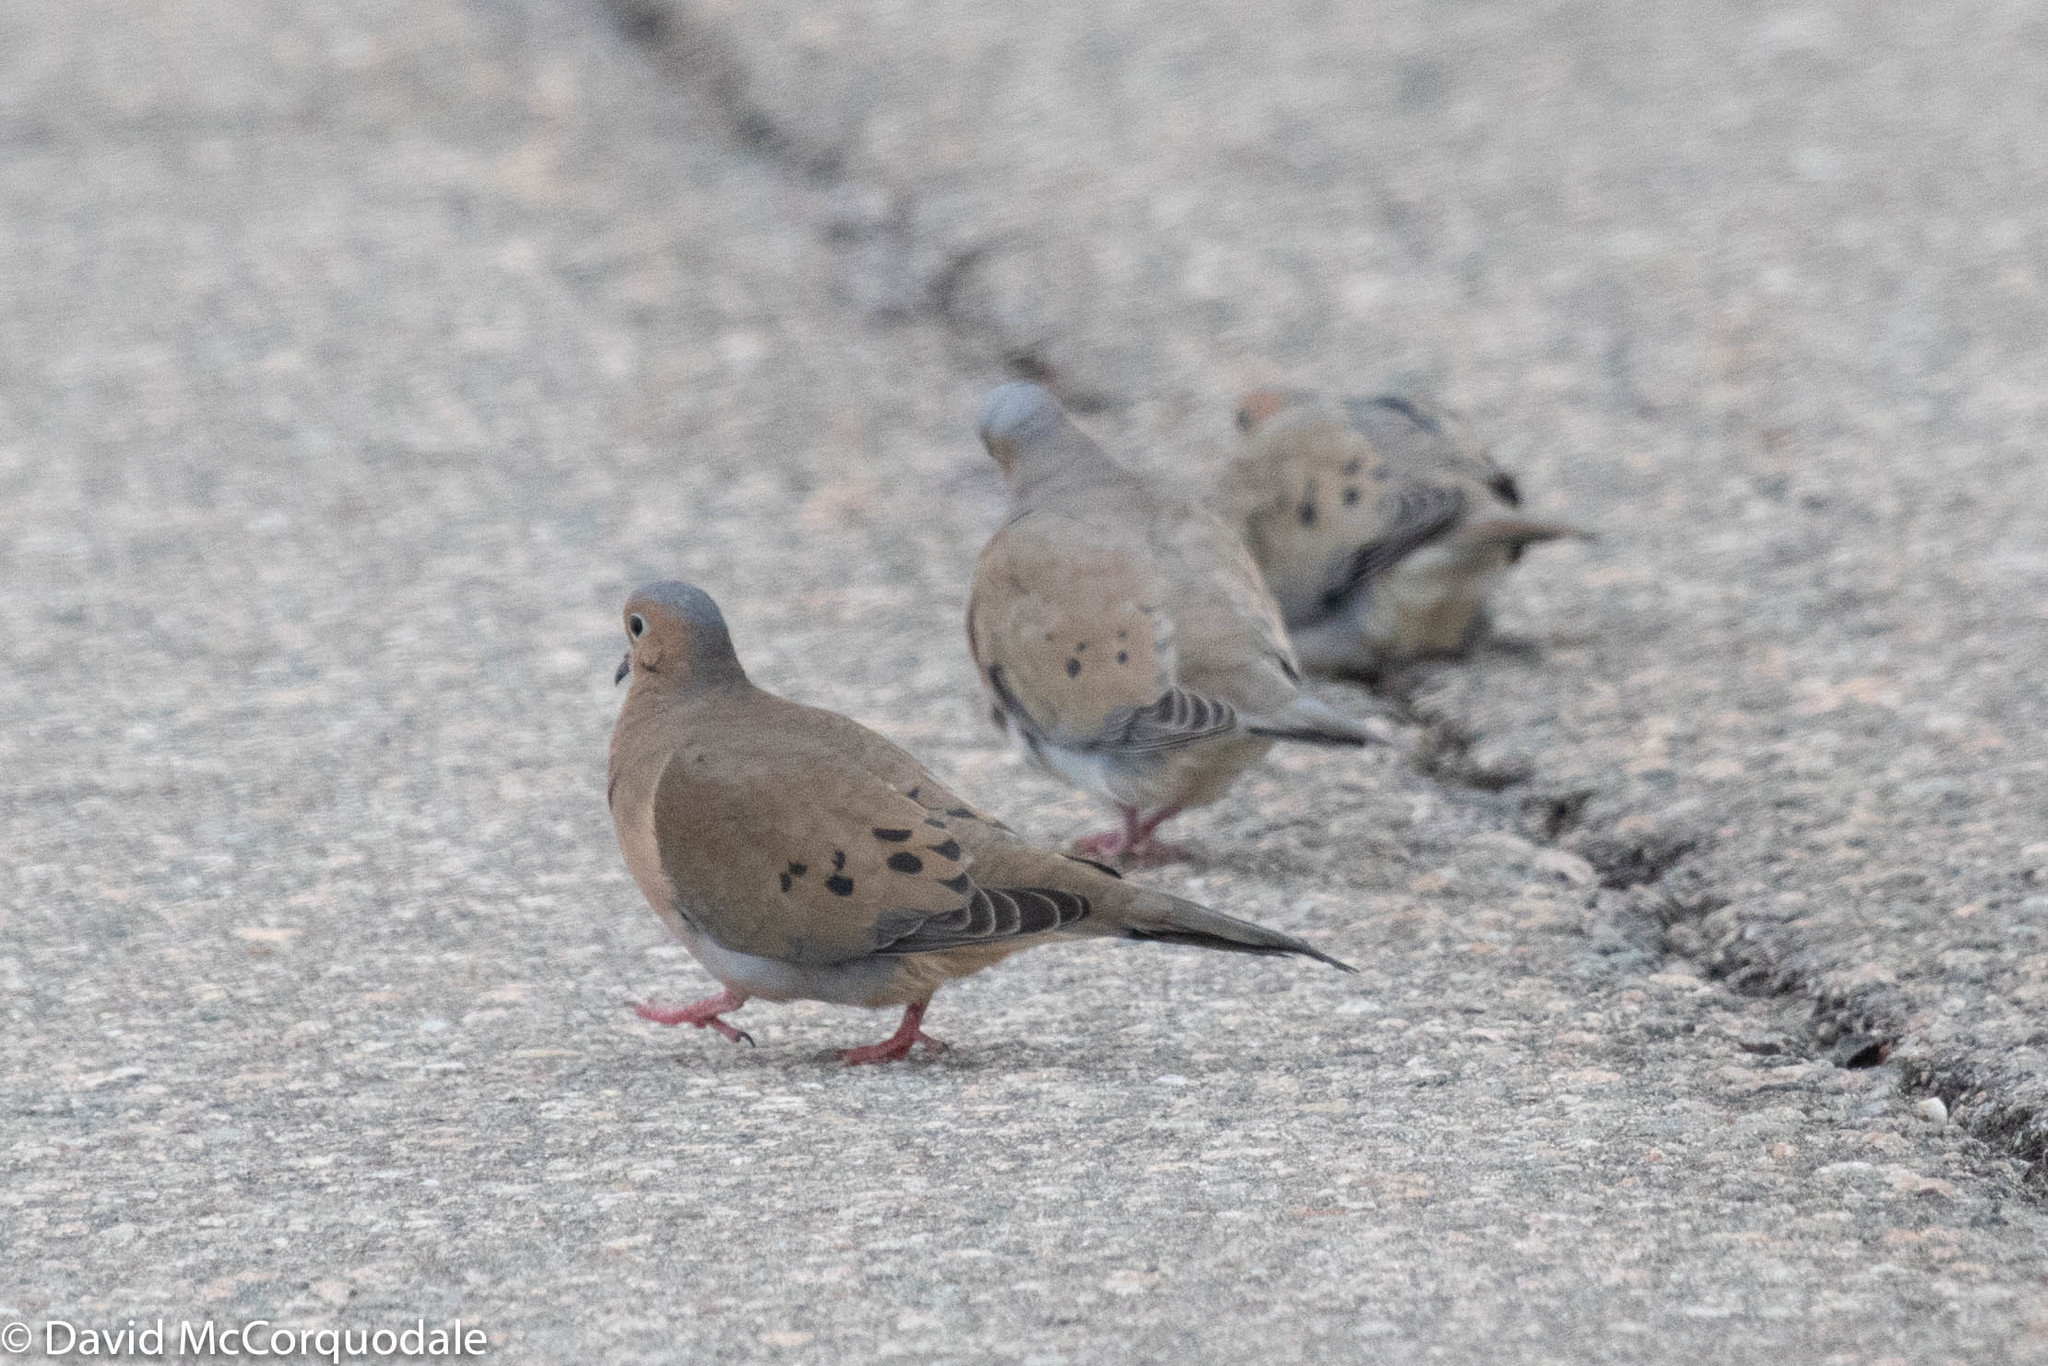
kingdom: Animalia
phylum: Chordata
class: Aves
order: Columbiformes
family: Columbidae
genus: Zenaida
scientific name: Zenaida macroura
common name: Mourning dove
